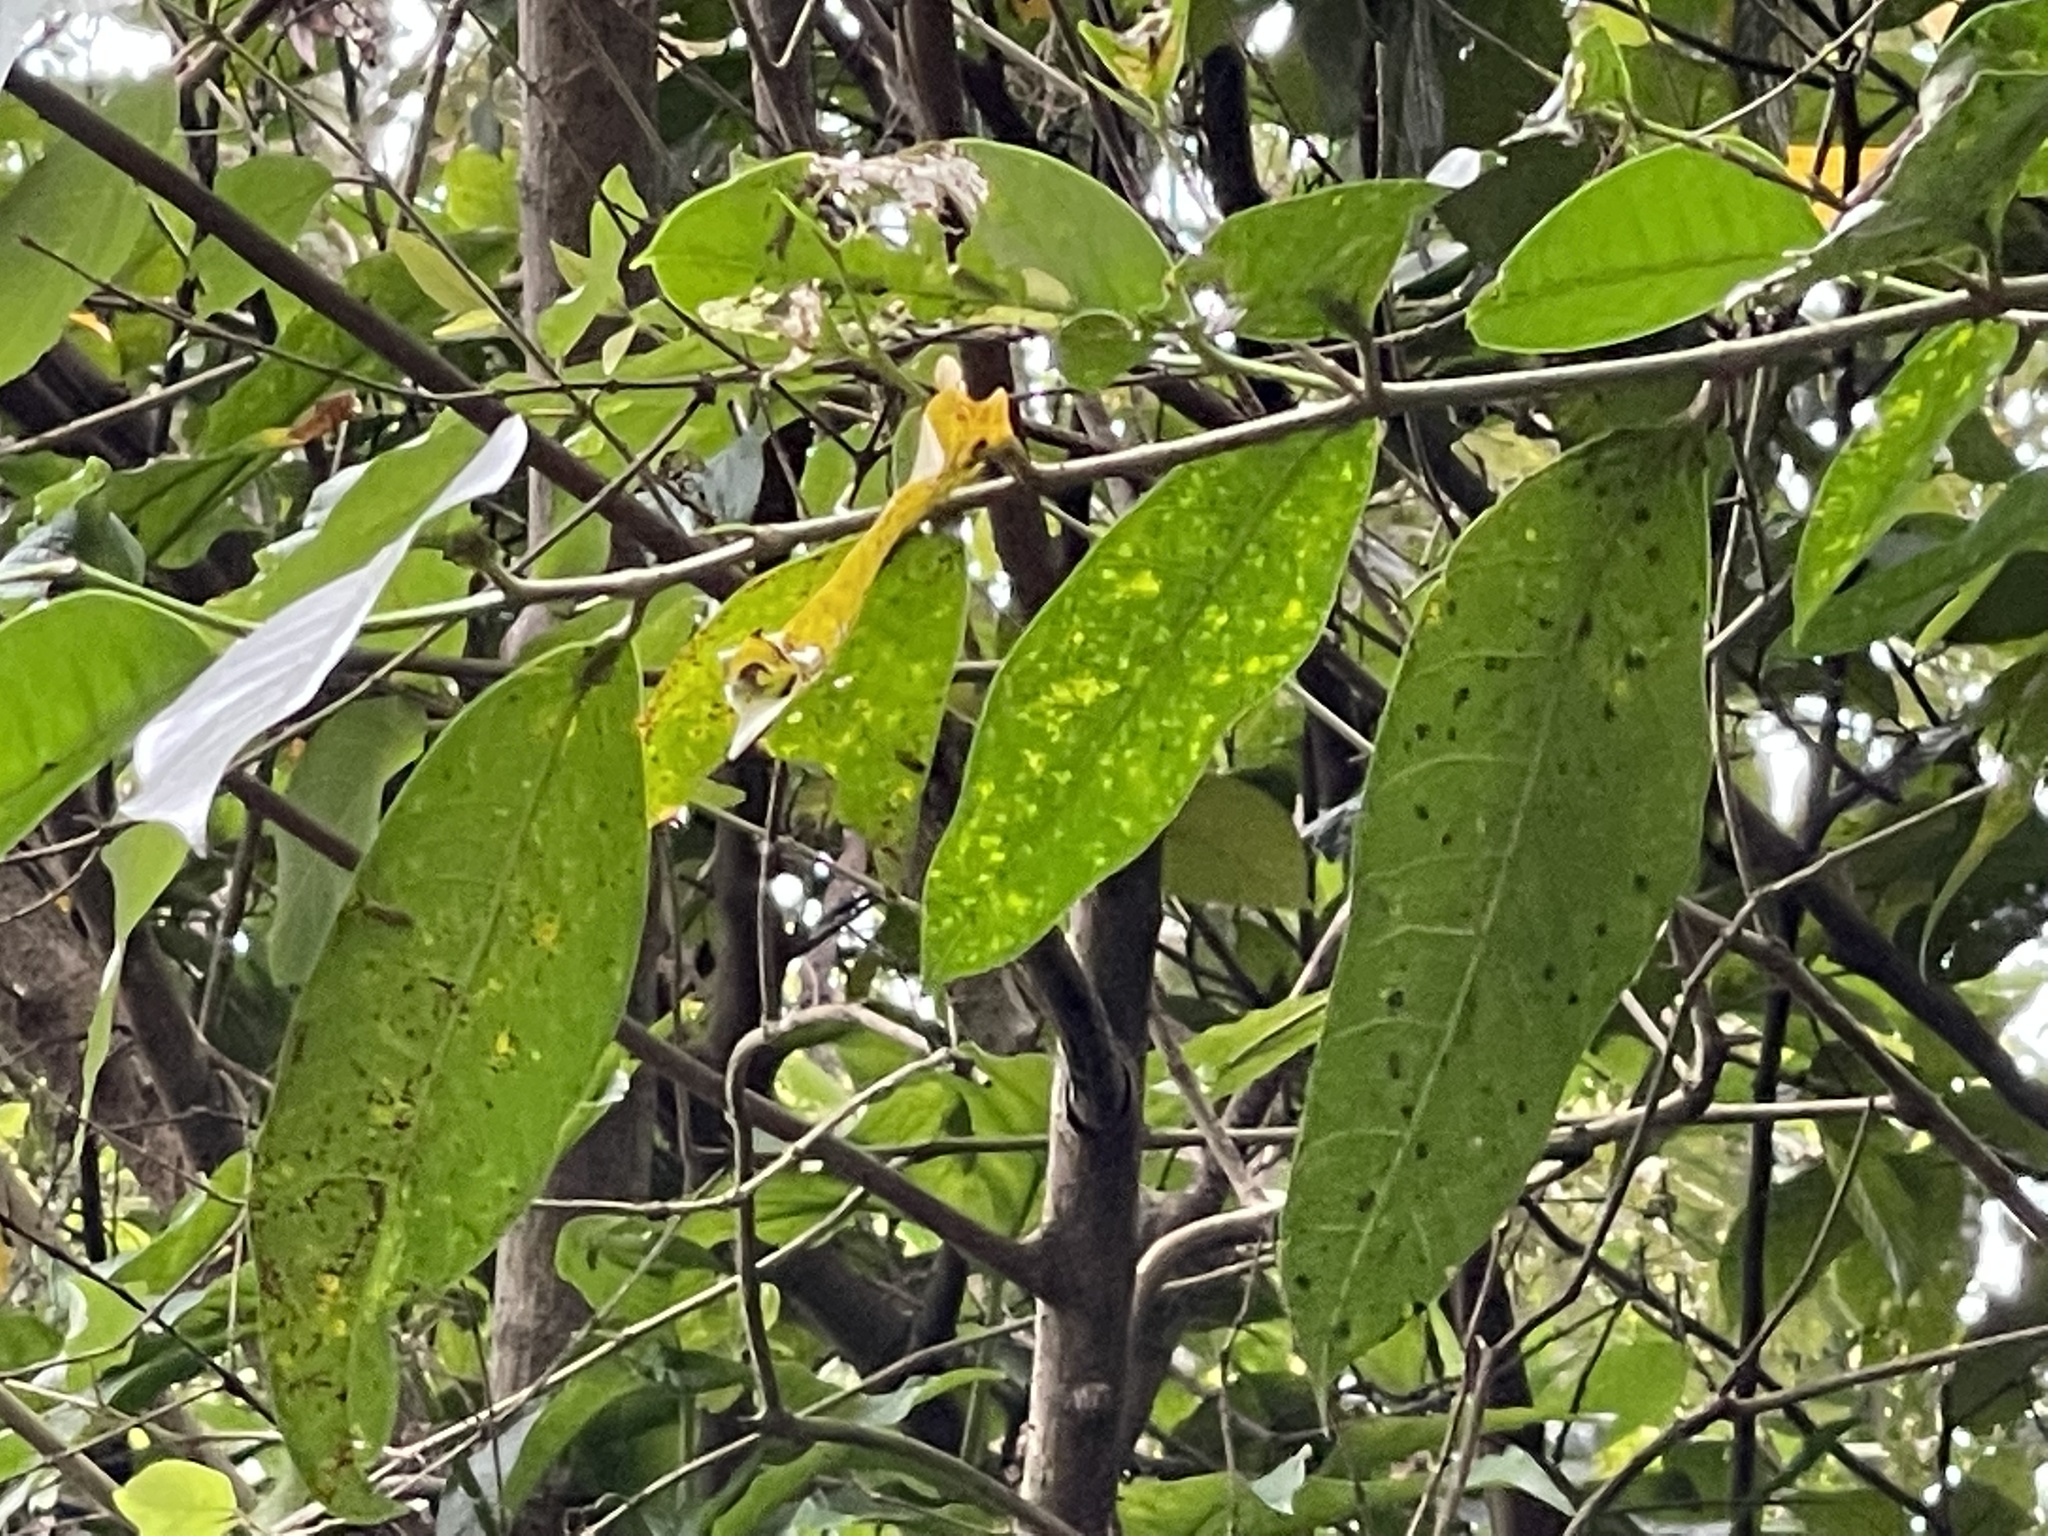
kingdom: Plantae
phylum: Tracheophyta
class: Magnoliopsida
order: Rosales
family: Moraceae
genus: Ficus
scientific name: Ficus virgata
